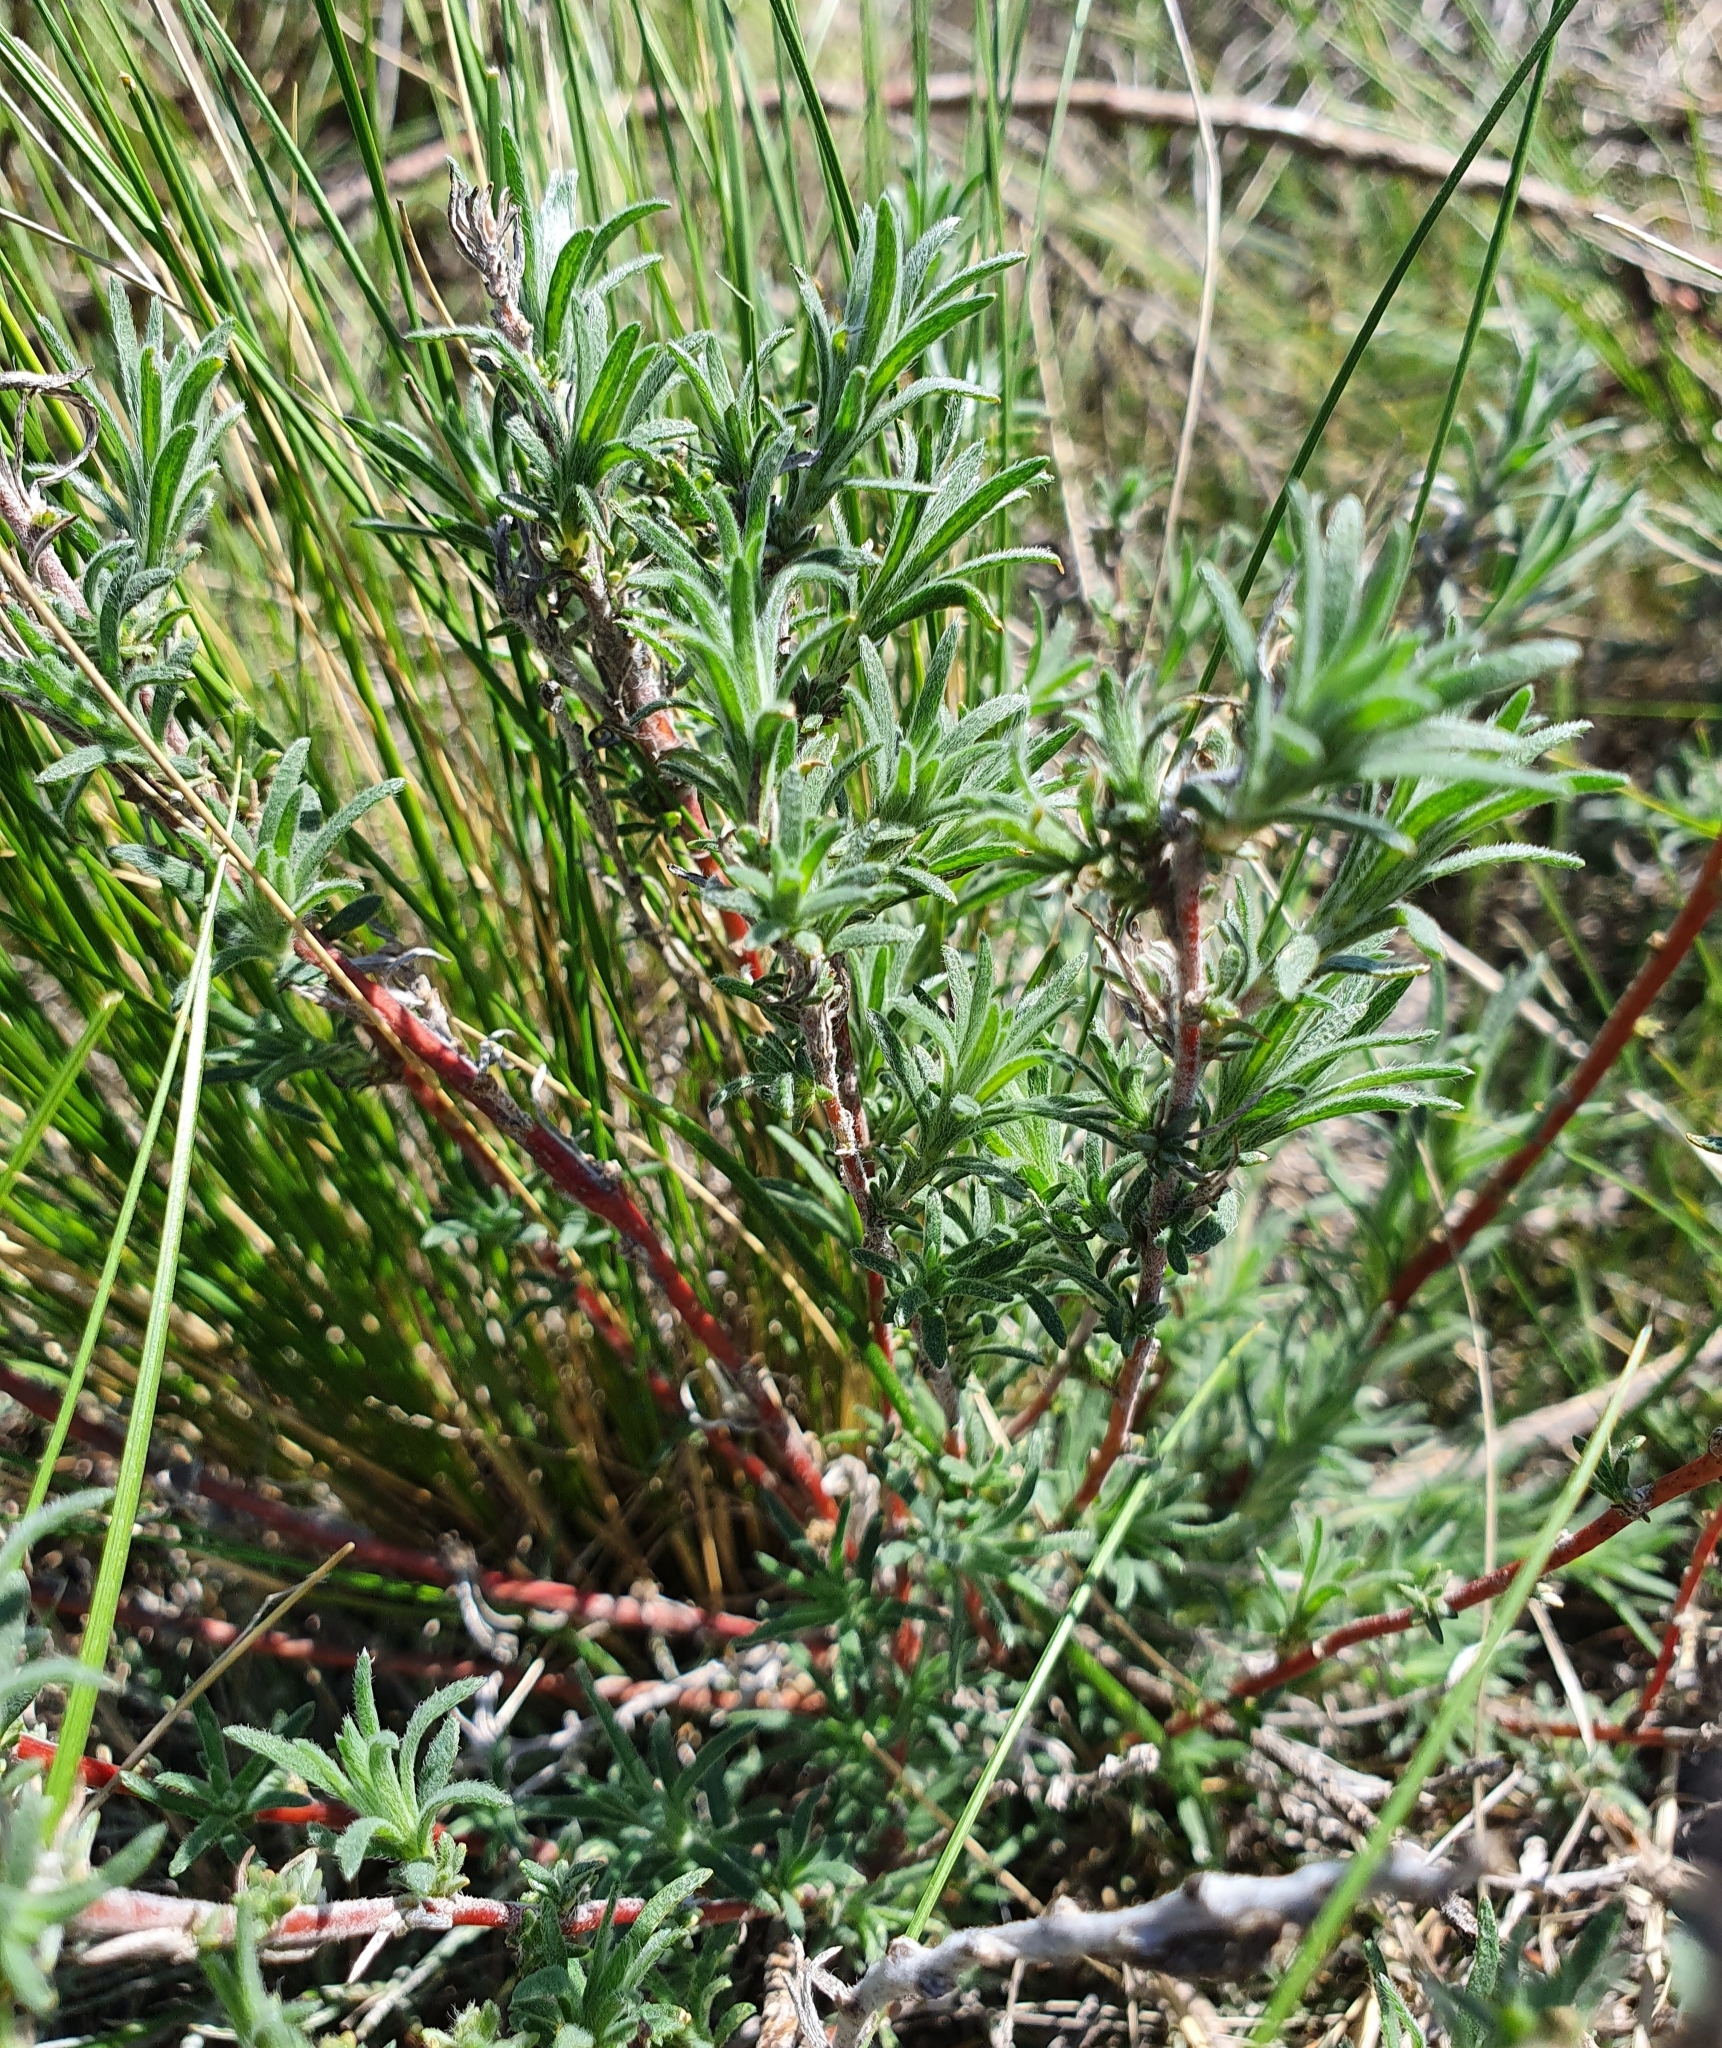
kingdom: Plantae
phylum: Tracheophyta
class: Magnoliopsida
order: Caryophyllales
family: Amaranthaceae
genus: Bassia
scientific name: Bassia prostrata
